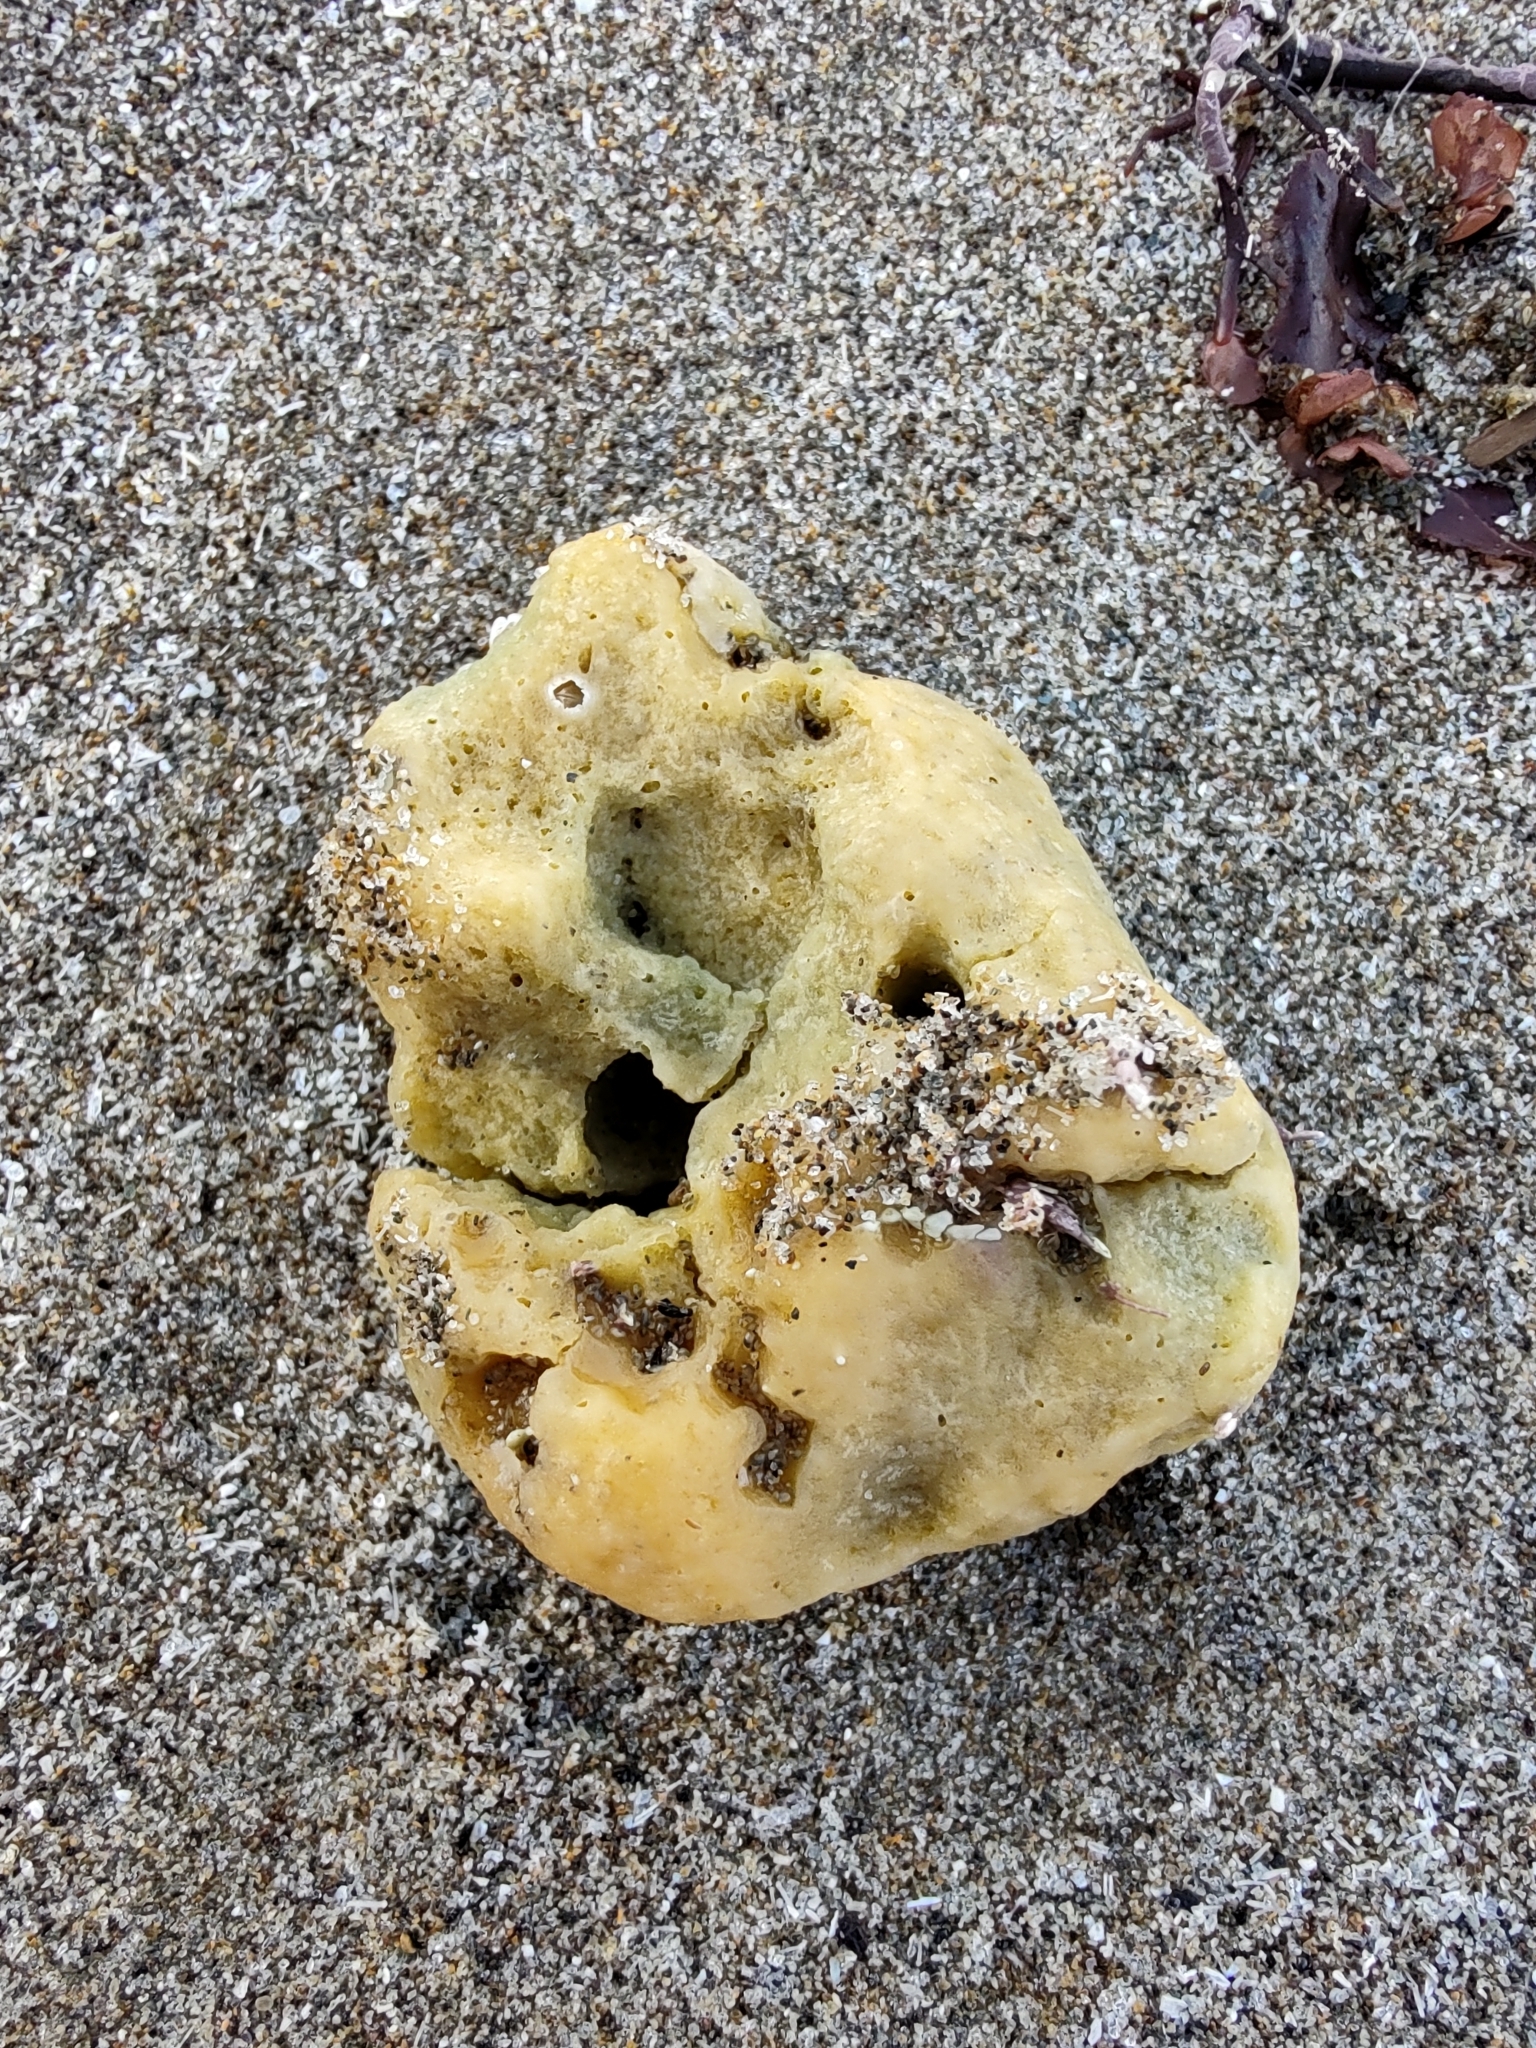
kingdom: Animalia
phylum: Porifera
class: Demospongiae
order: Suberitida
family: Halichondriidae
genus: Halichondria
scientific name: Halichondria panicea
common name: Breadcrumb sponge
